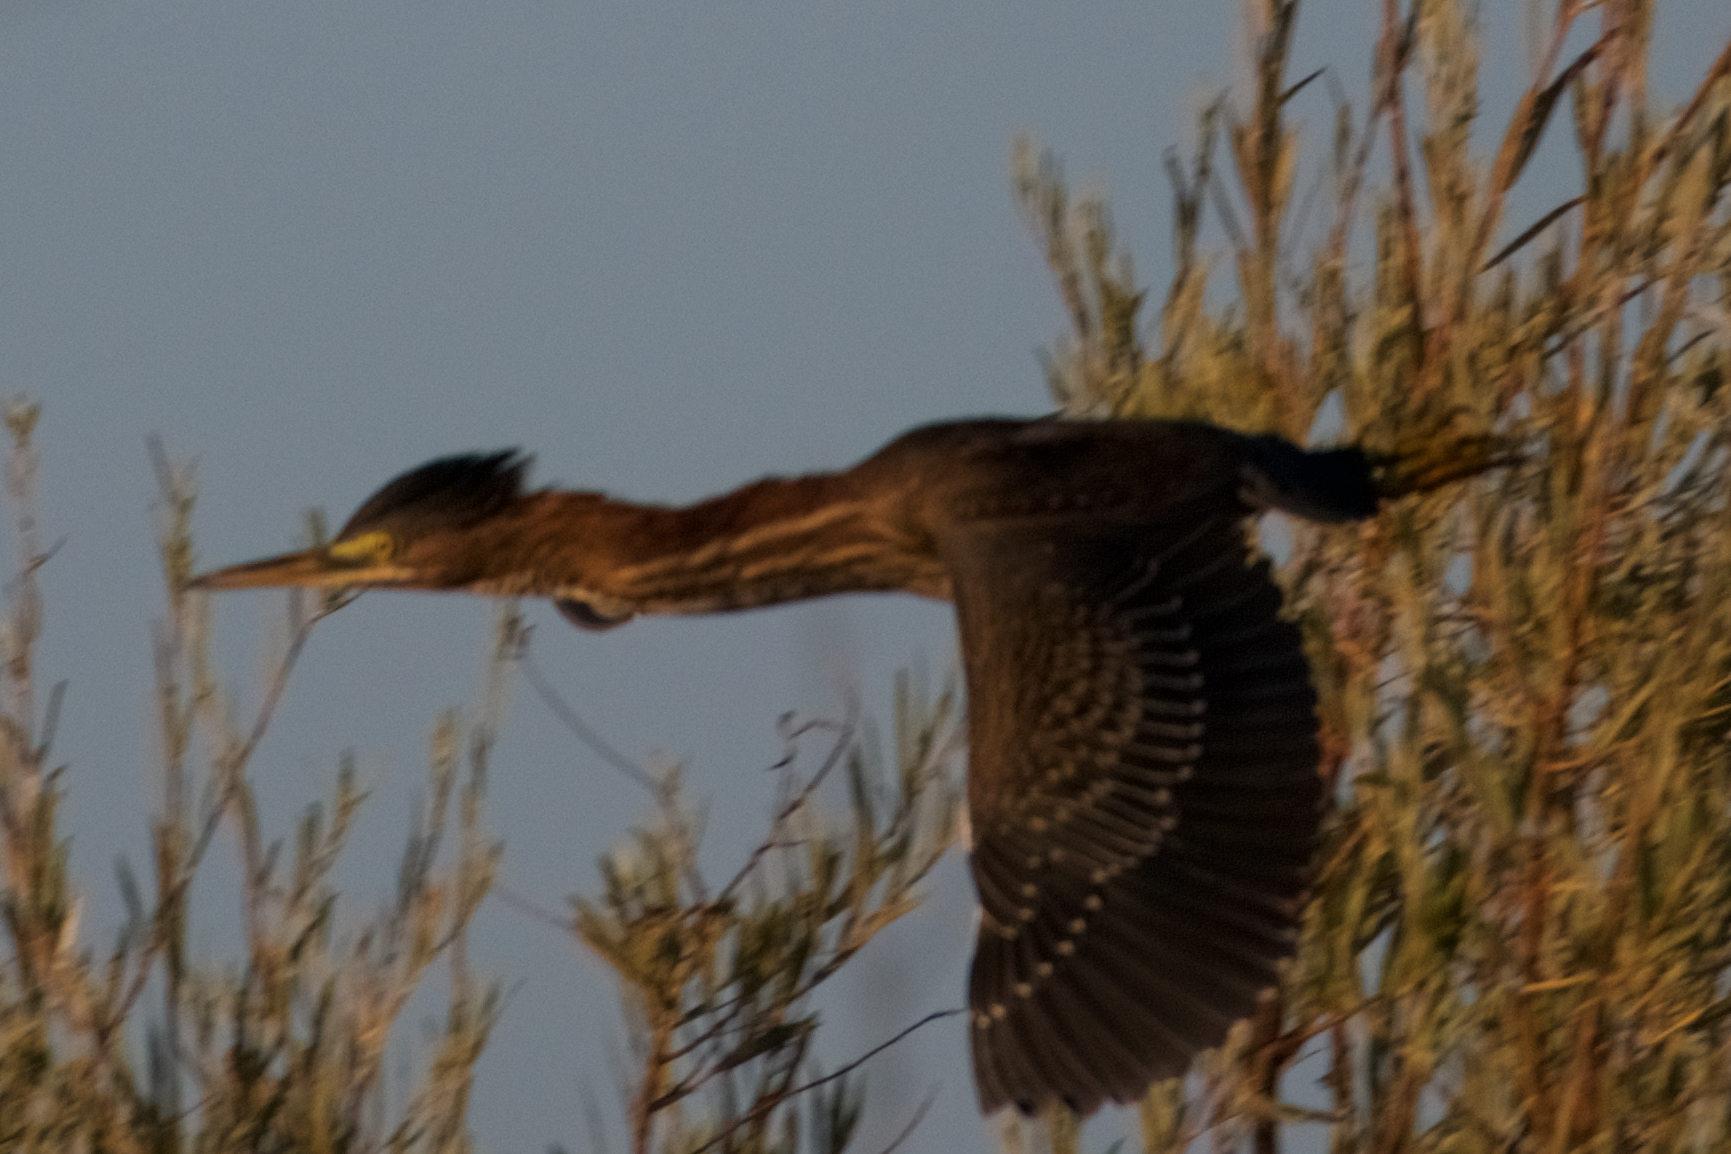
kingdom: Animalia
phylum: Chordata
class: Aves
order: Pelecaniformes
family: Ardeidae
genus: Butorides
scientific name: Butorides virescens
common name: Green heron
